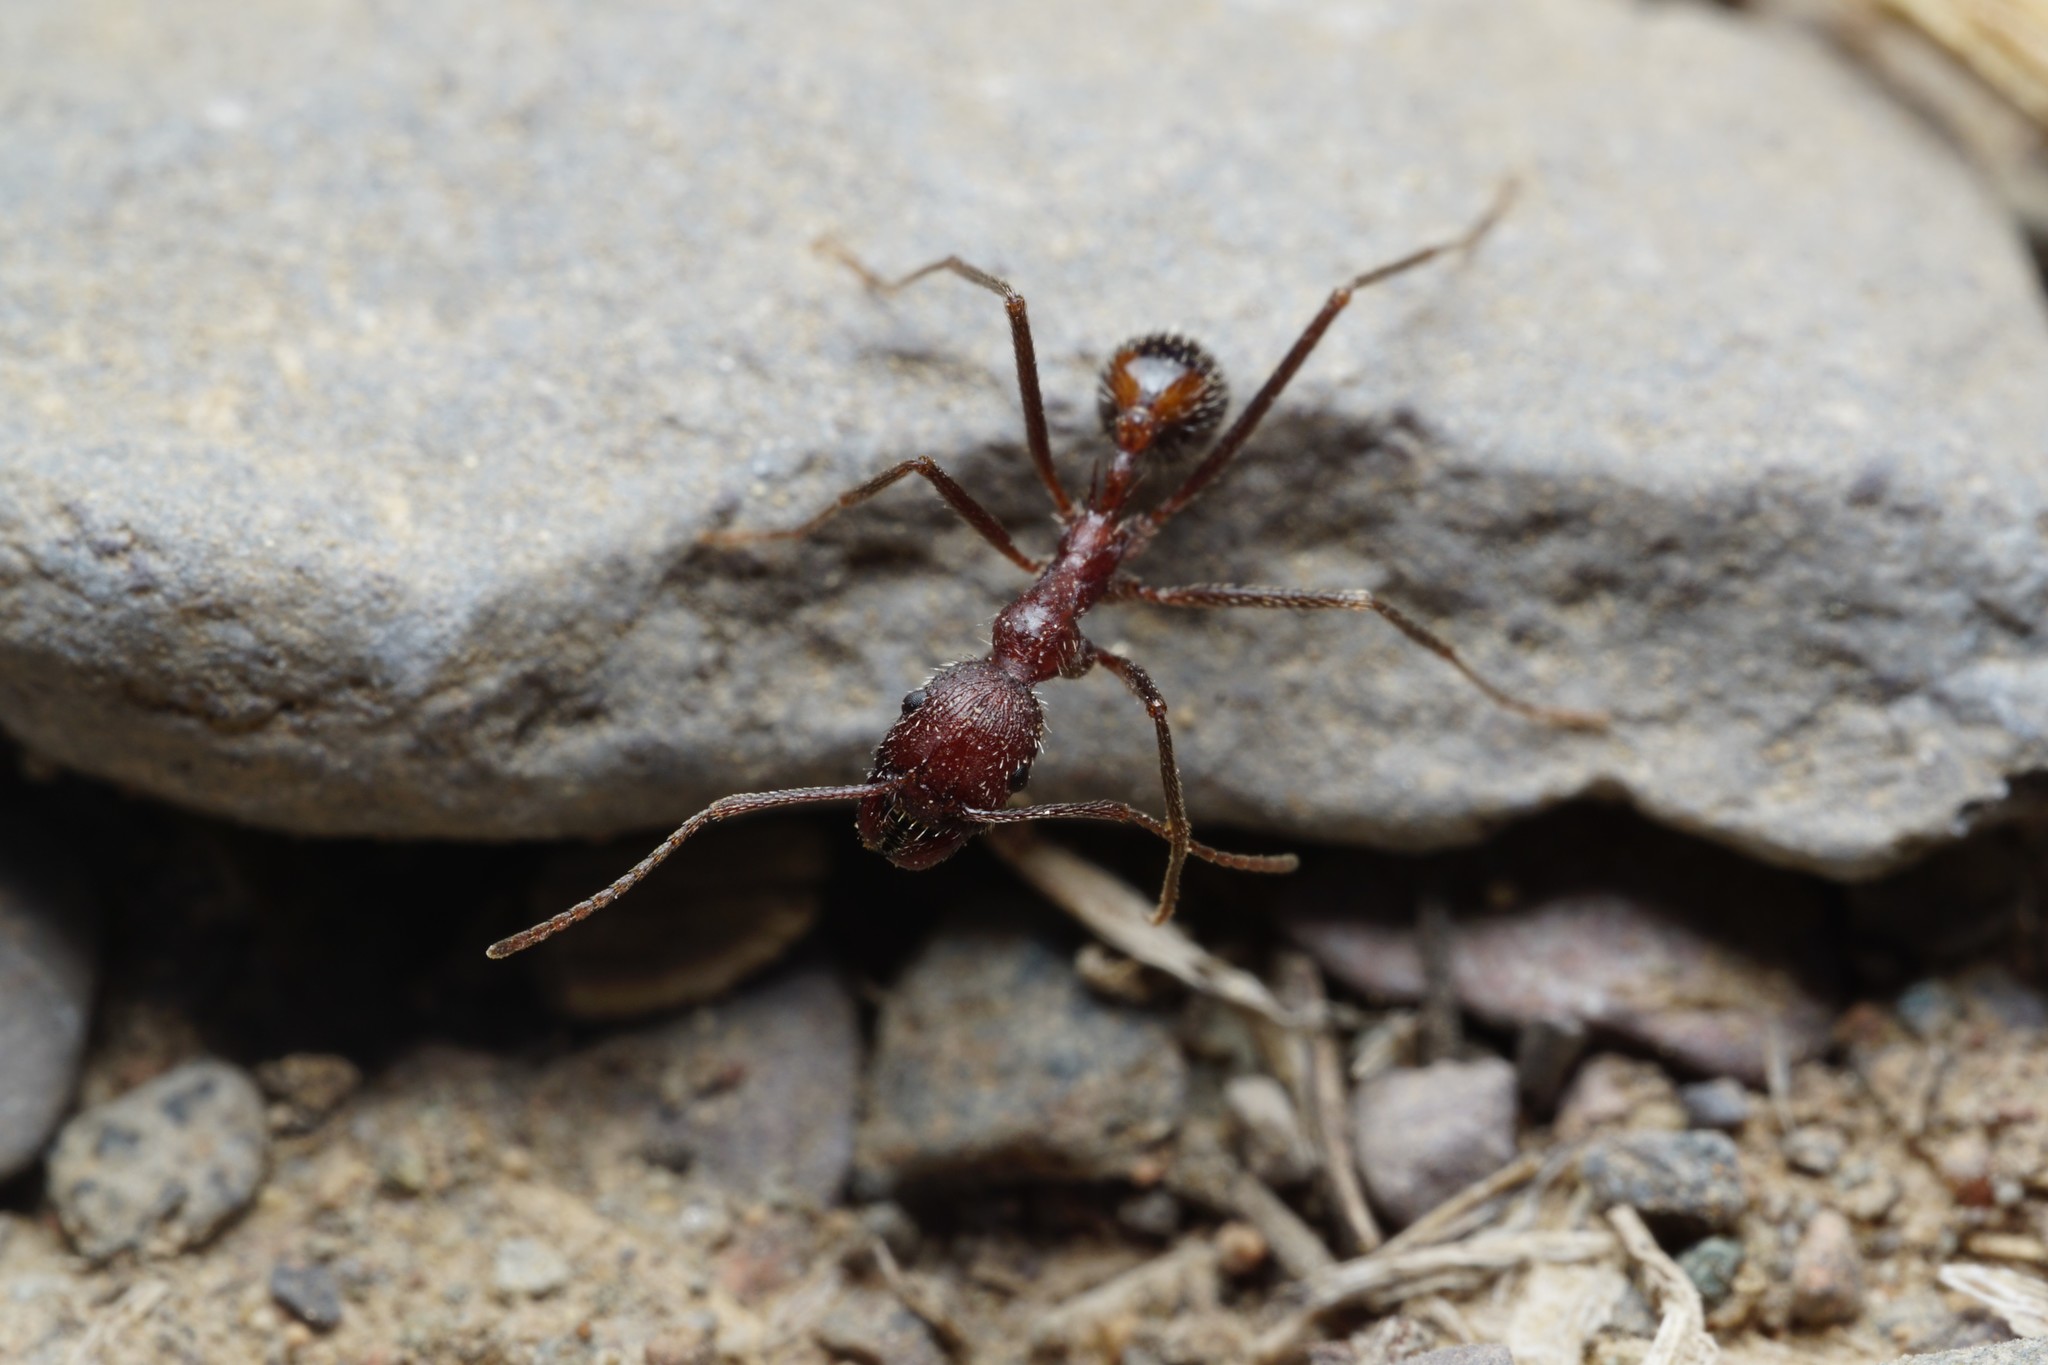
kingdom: Animalia
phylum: Arthropoda
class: Insecta
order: Hymenoptera
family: Formicidae
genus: Novomessor
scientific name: Novomessor albisetosa
